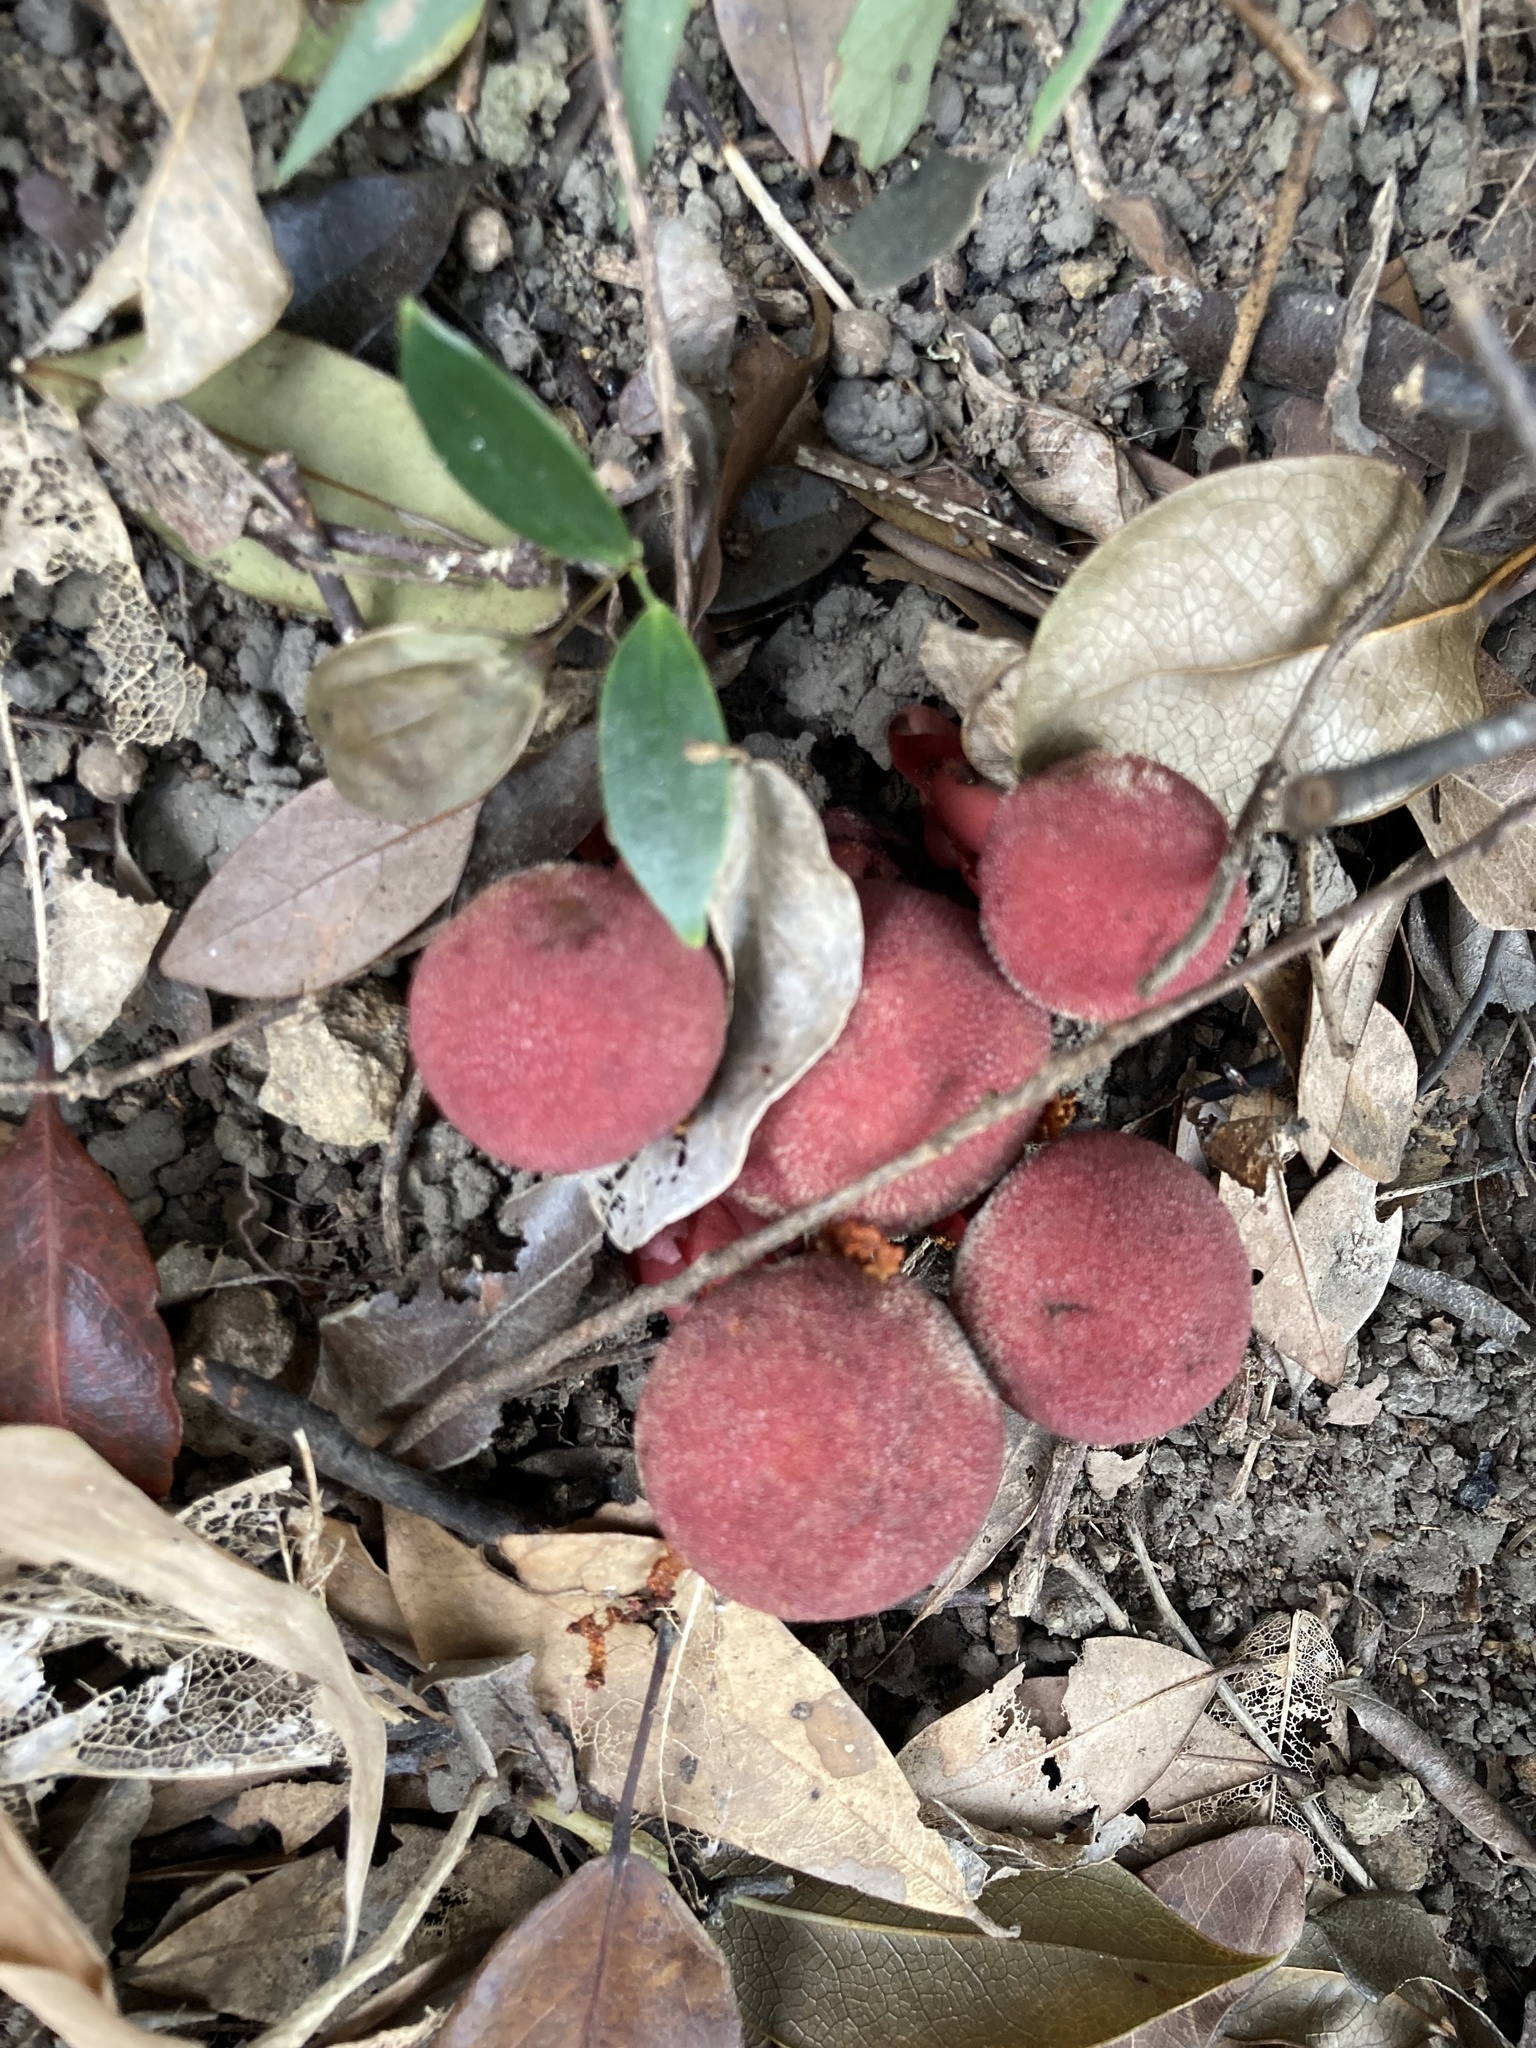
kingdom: Plantae
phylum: Tracheophyta
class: Magnoliopsida
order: Santalales
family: Balanophoraceae
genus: Balanophora
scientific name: Balanophora harlandii
